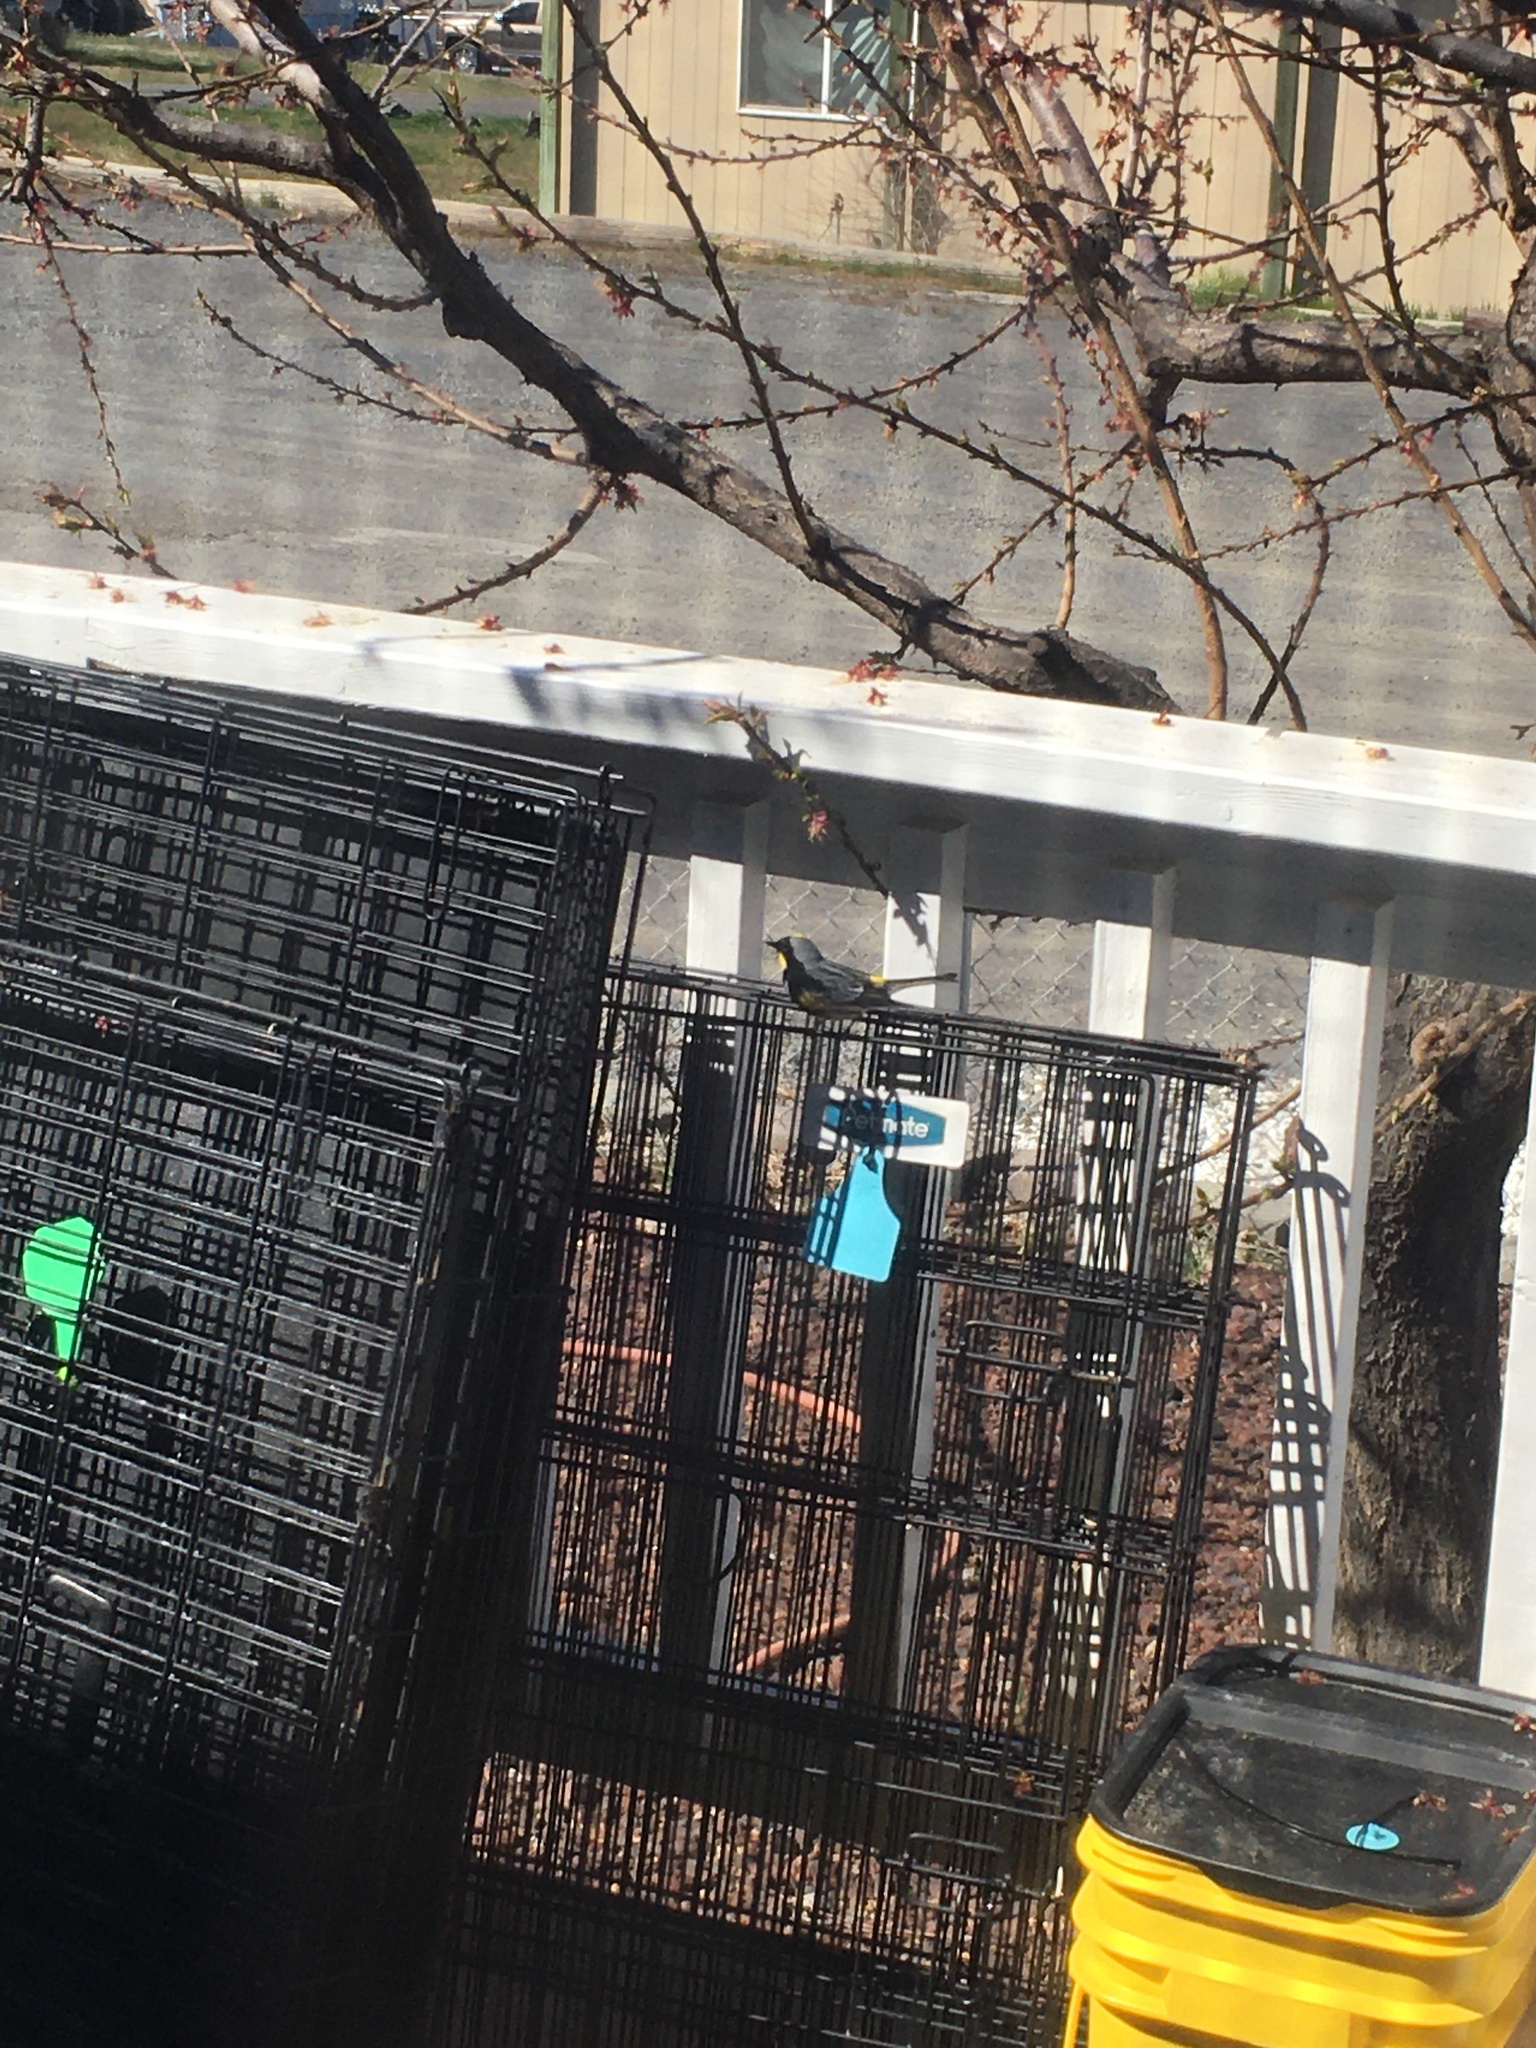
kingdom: Animalia
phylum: Chordata
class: Aves
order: Passeriformes
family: Parulidae
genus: Setophaga
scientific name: Setophaga coronata
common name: Myrtle warbler
